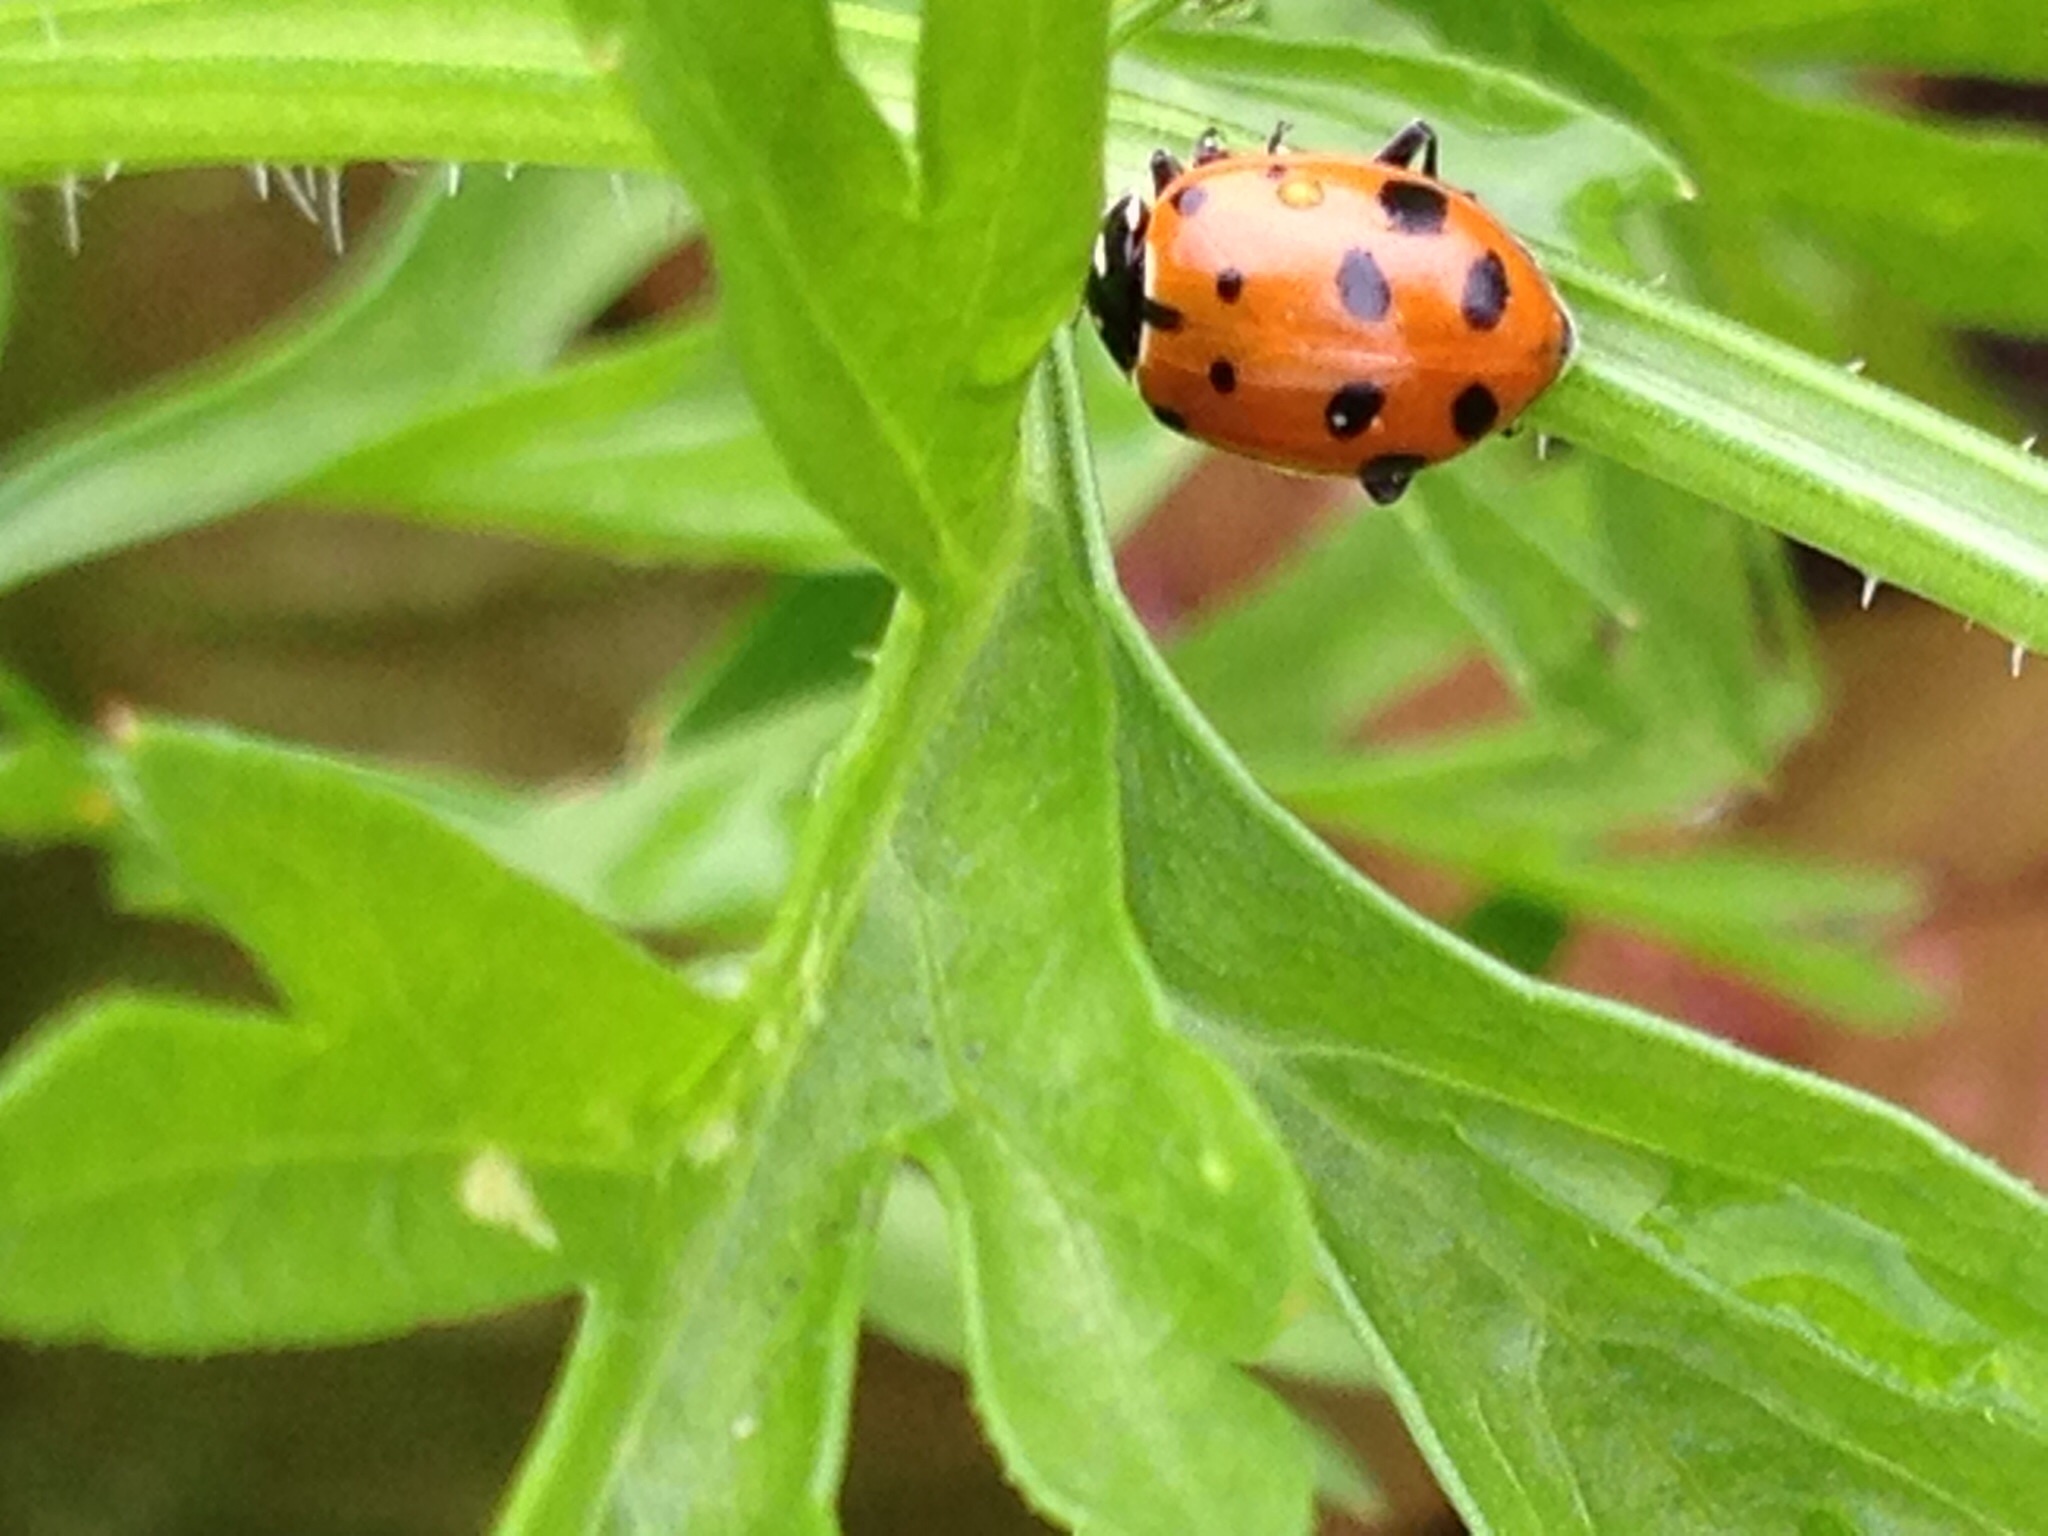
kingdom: Animalia
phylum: Arthropoda
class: Insecta
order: Coleoptera
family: Coccinellidae
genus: Hippodamia
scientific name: Hippodamia convergens
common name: Convergent lady beetle
